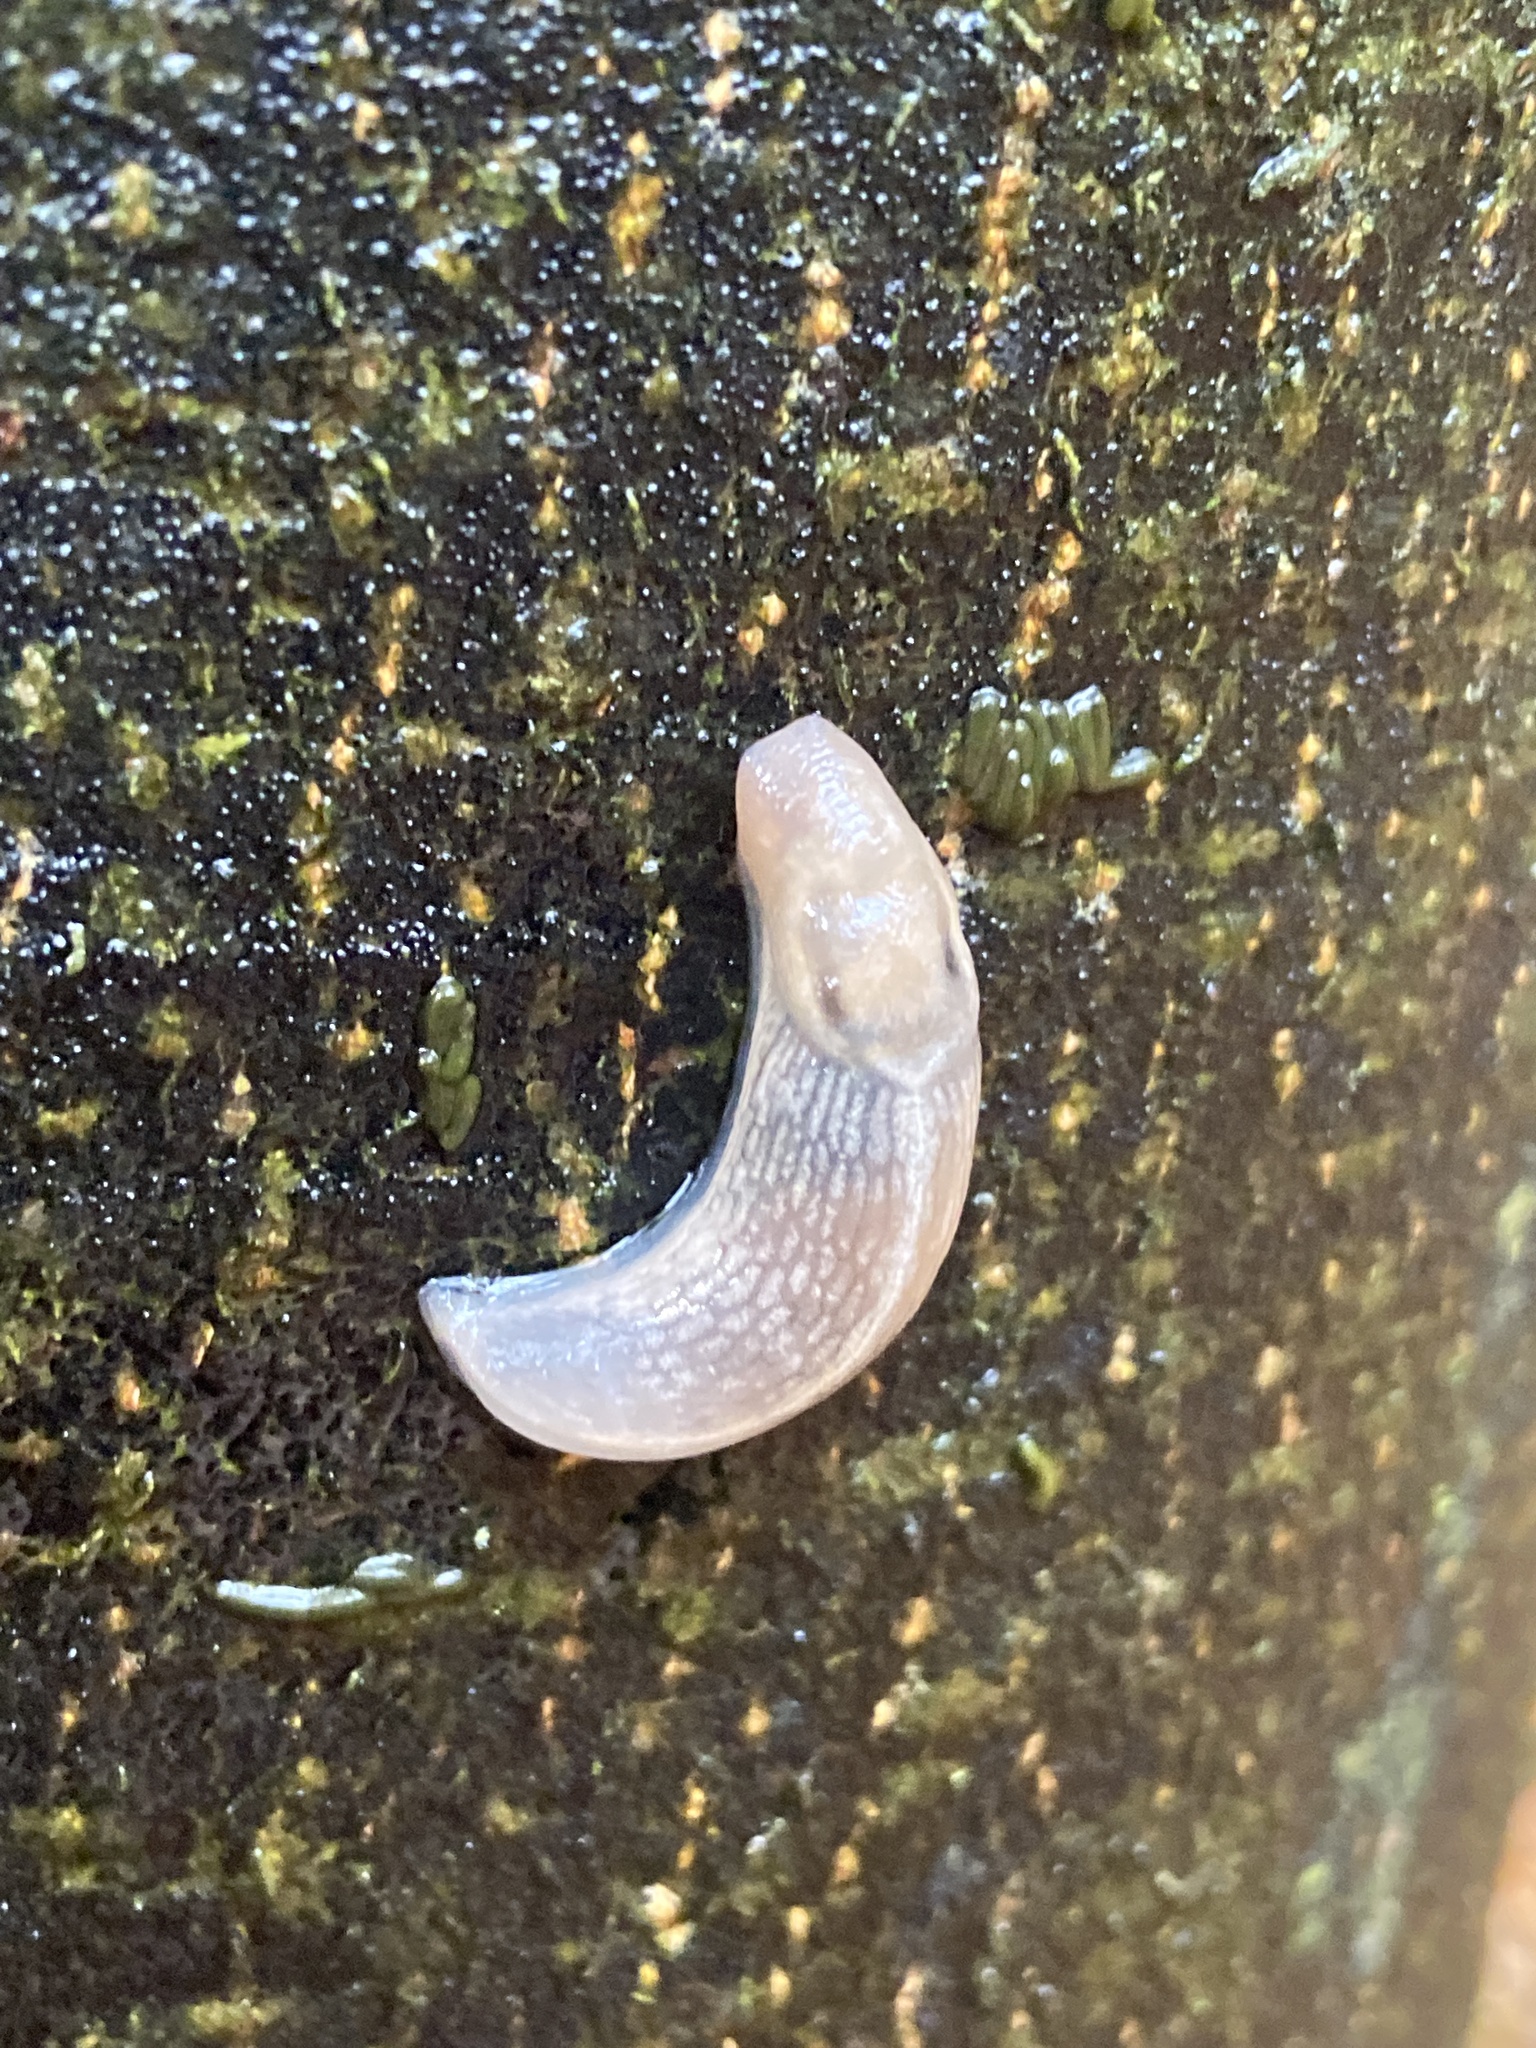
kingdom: Animalia
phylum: Mollusca
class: Gastropoda
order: Stylommatophora
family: Limacidae
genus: Lehmannia
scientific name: Lehmannia marginata
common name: Tree slug
